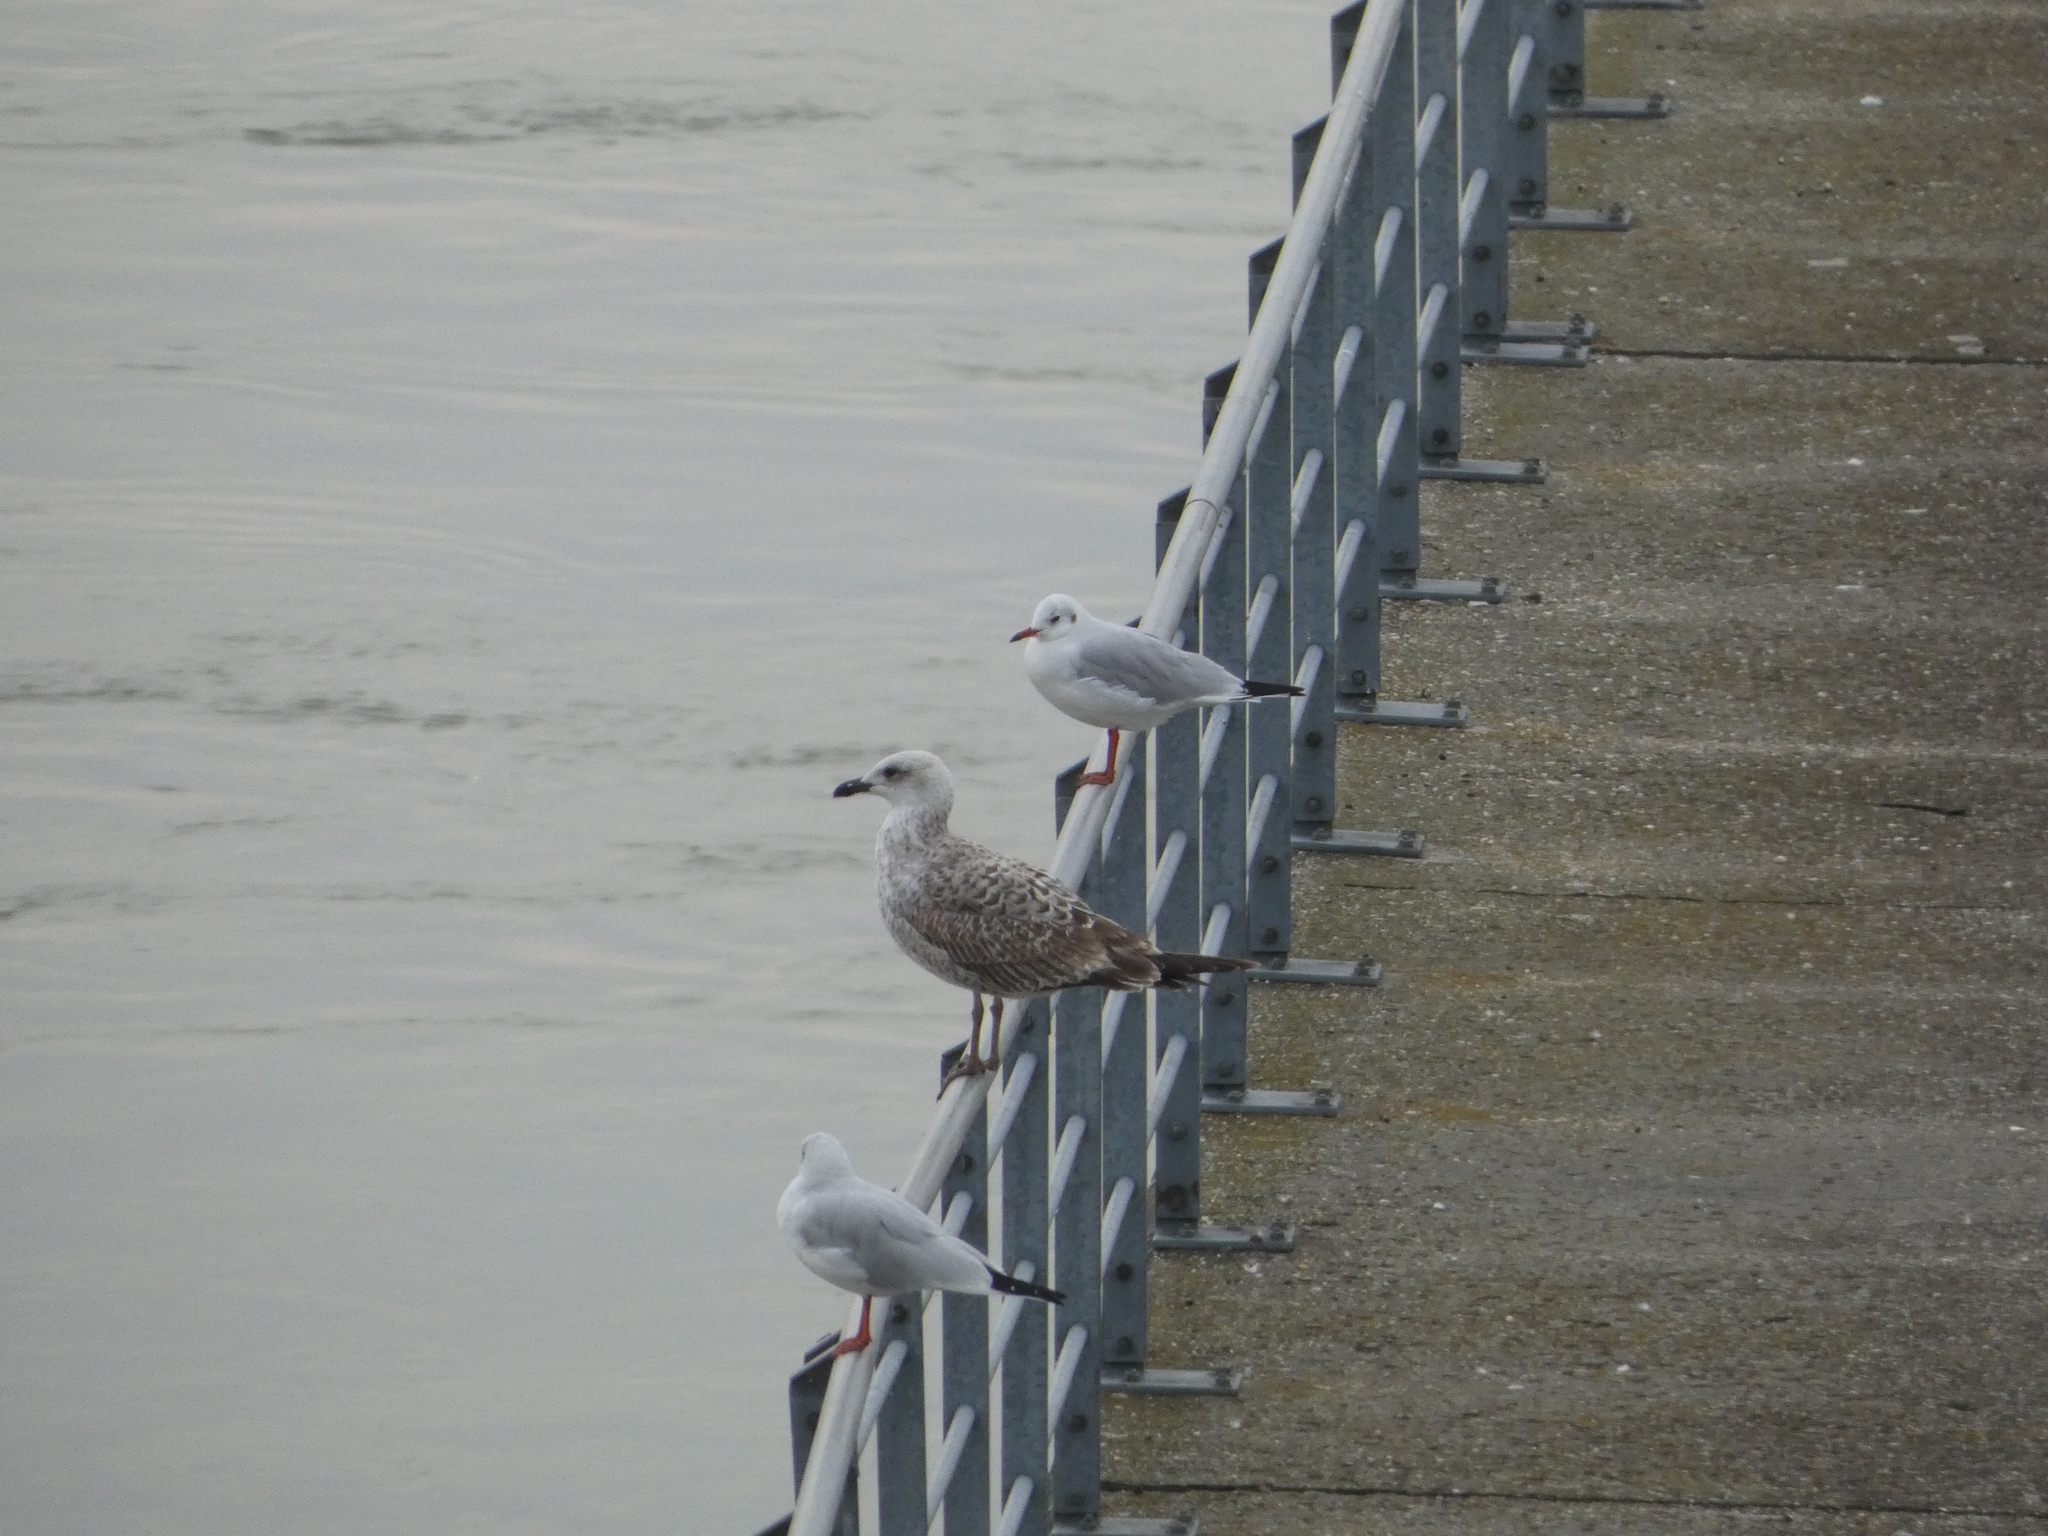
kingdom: Animalia
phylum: Chordata
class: Aves
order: Charadriiformes
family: Laridae
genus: Larus
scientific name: Larus michahellis
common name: Yellow-legged gull
